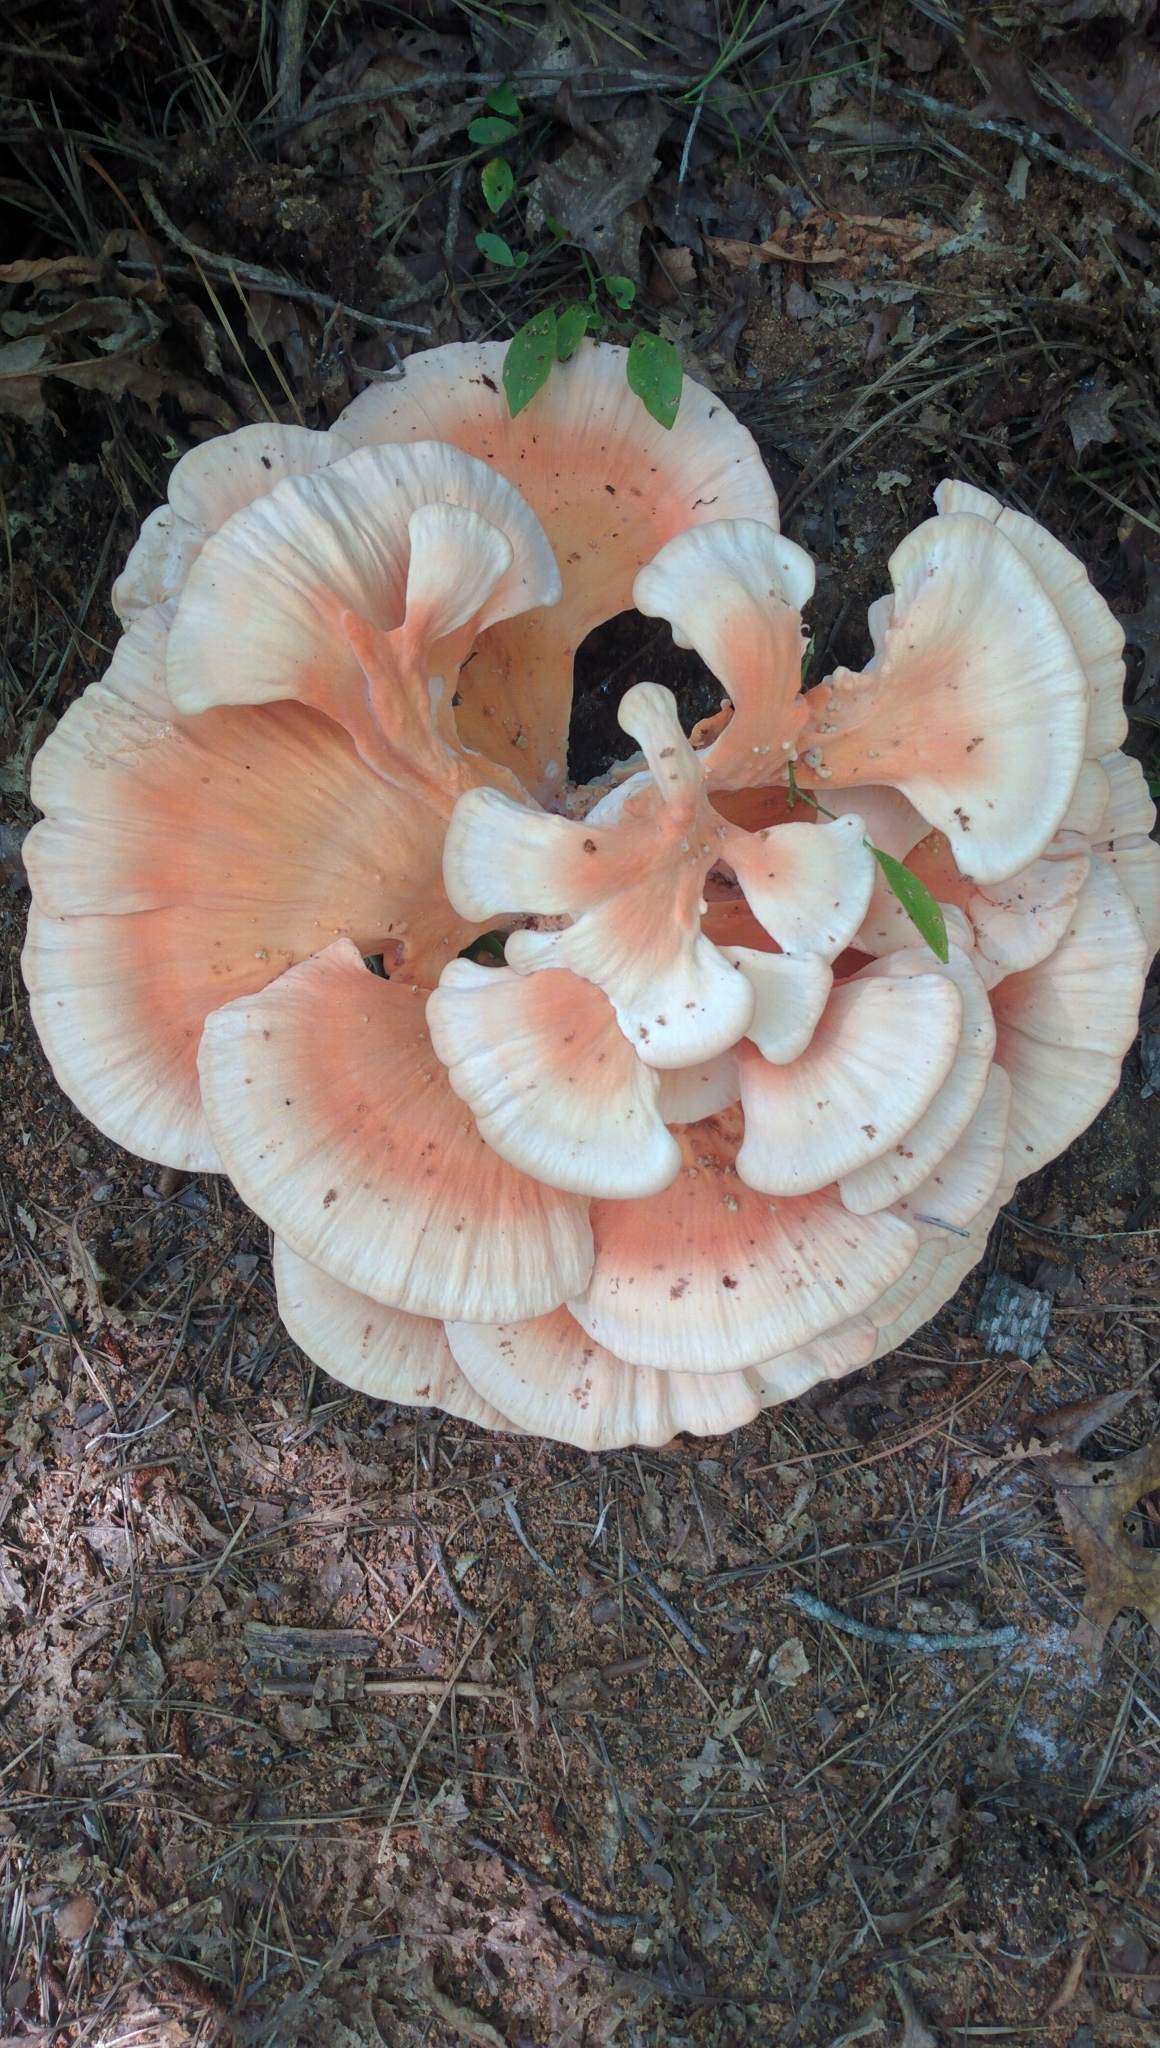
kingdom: Fungi
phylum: Basidiomycota
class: Agaricomycetes
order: Polyporales
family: Laetiporaceae
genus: Laetiporus
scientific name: Laetiporus sulphureus
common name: Chicken of the woods
